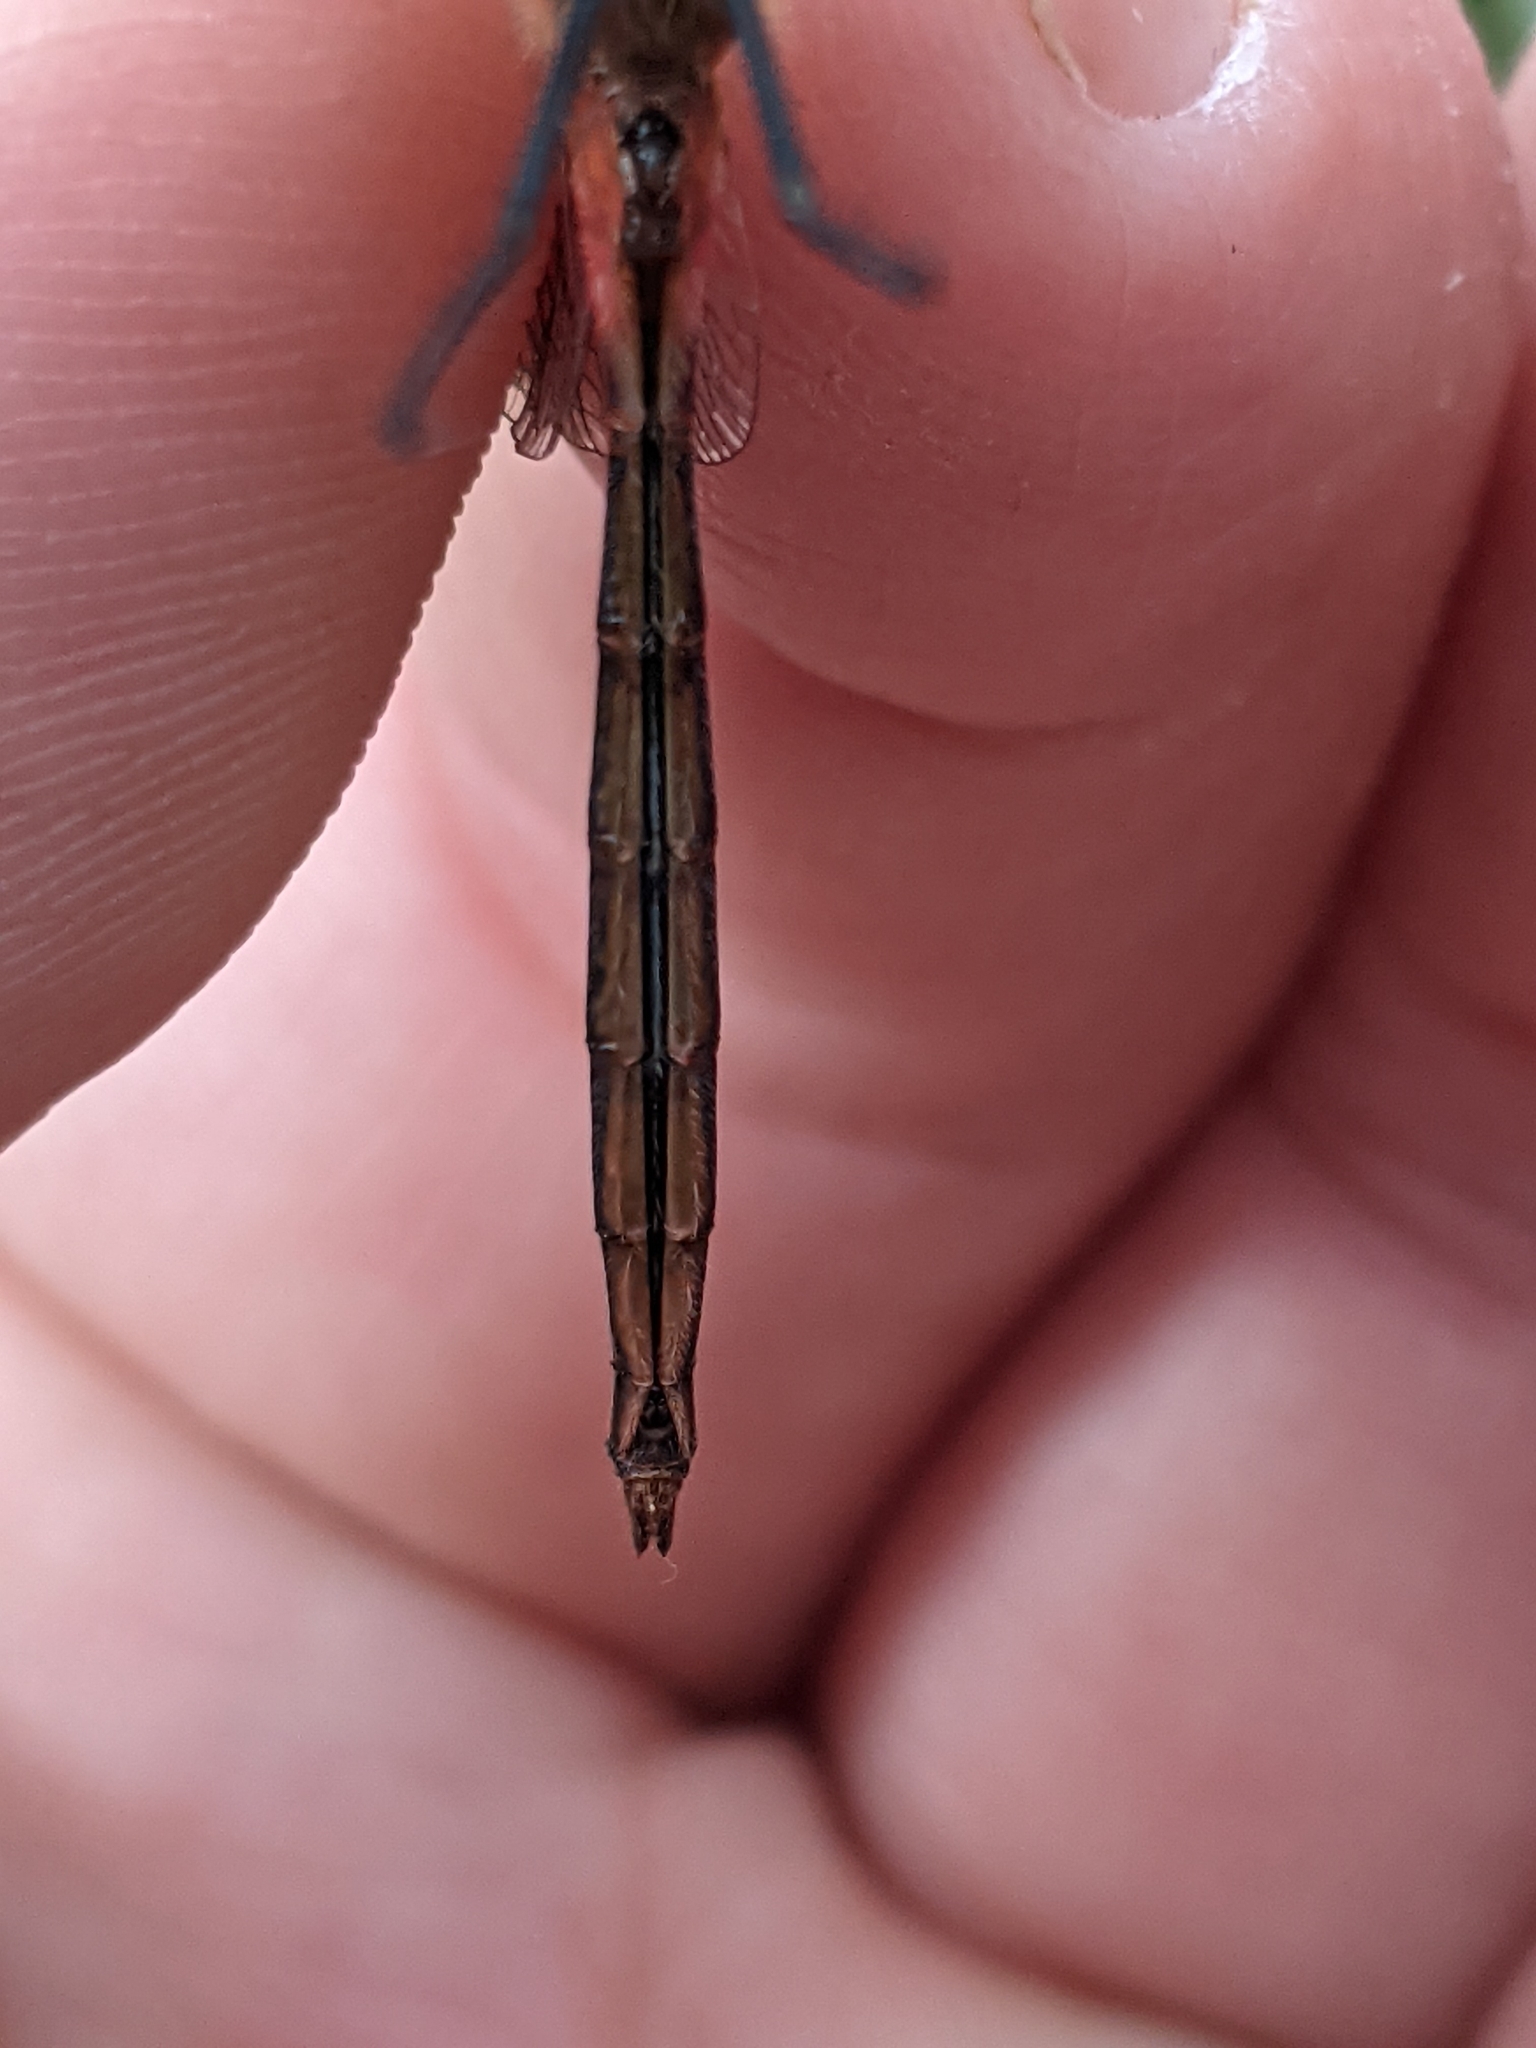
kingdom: Animalia
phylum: Arthropoda
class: Insecta
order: Odonata
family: Libellulidae
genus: Sympetrum
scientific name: Sympetrum obtrusum
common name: White-faced meadowhawk
